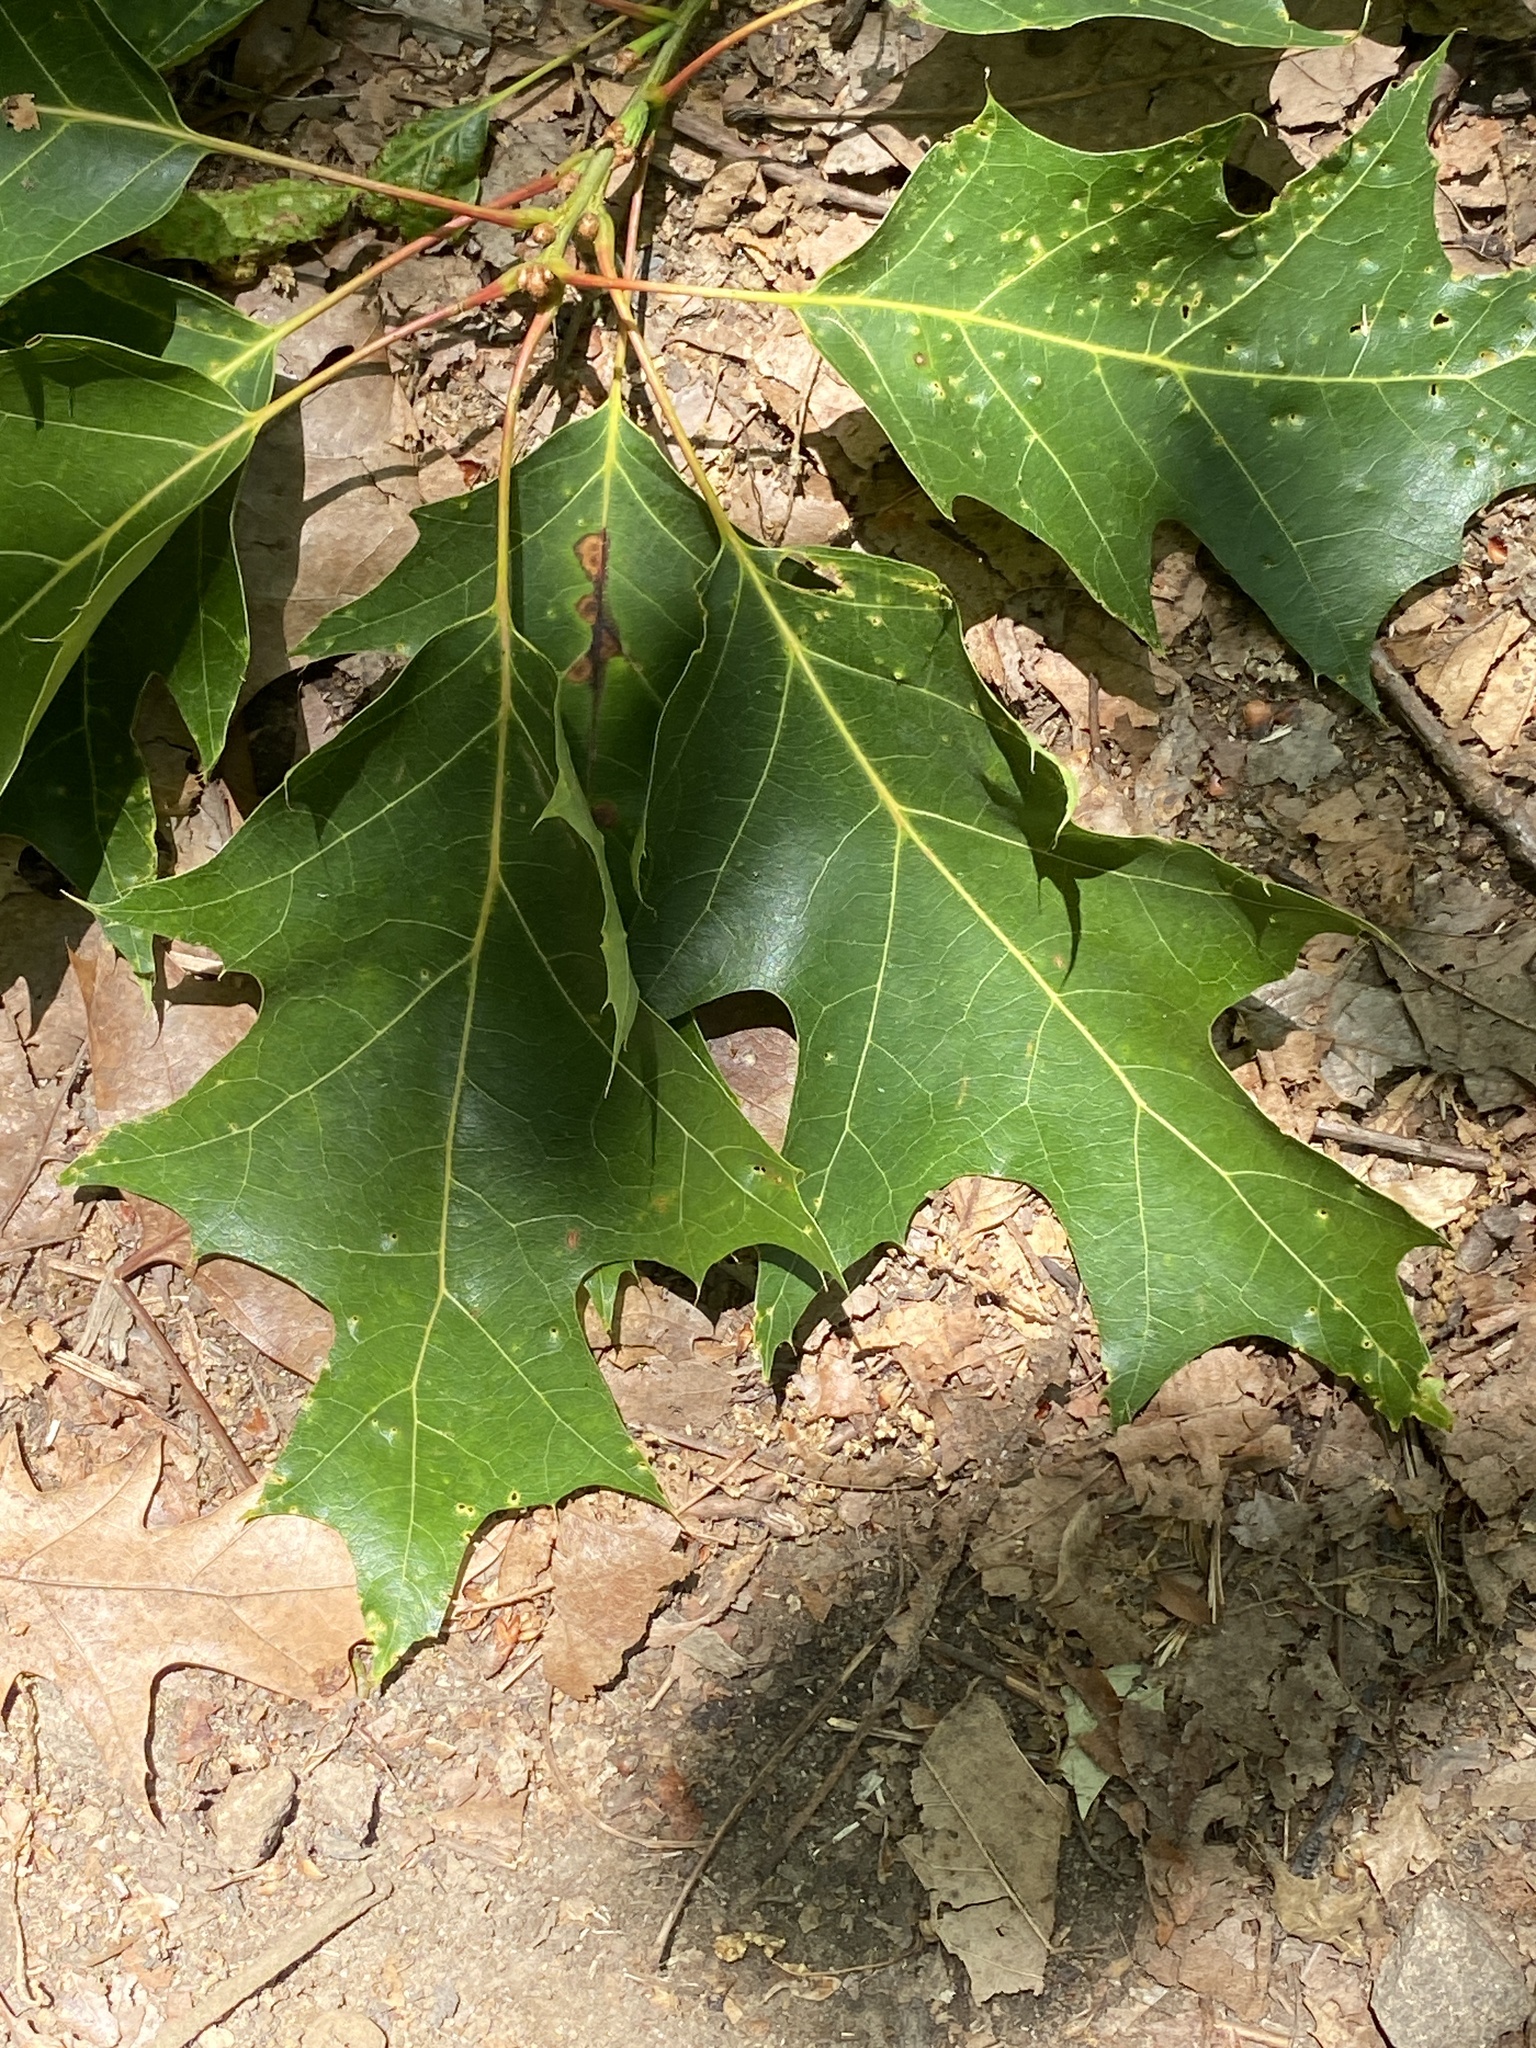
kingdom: Plantae
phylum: Tracheophyta
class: Magnoliopsida
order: Fagales
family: Fagaceae
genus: Quercus
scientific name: Quercus rubra
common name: Red oak
